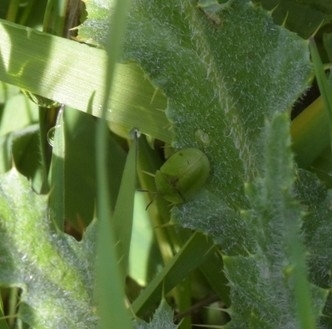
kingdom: Animalia
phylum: Arthropoda
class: Insecta
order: Coleoptera
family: Chrysomelidae
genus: Cassida
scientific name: Cassida rubiginosa
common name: Thistle tortoise beetle
